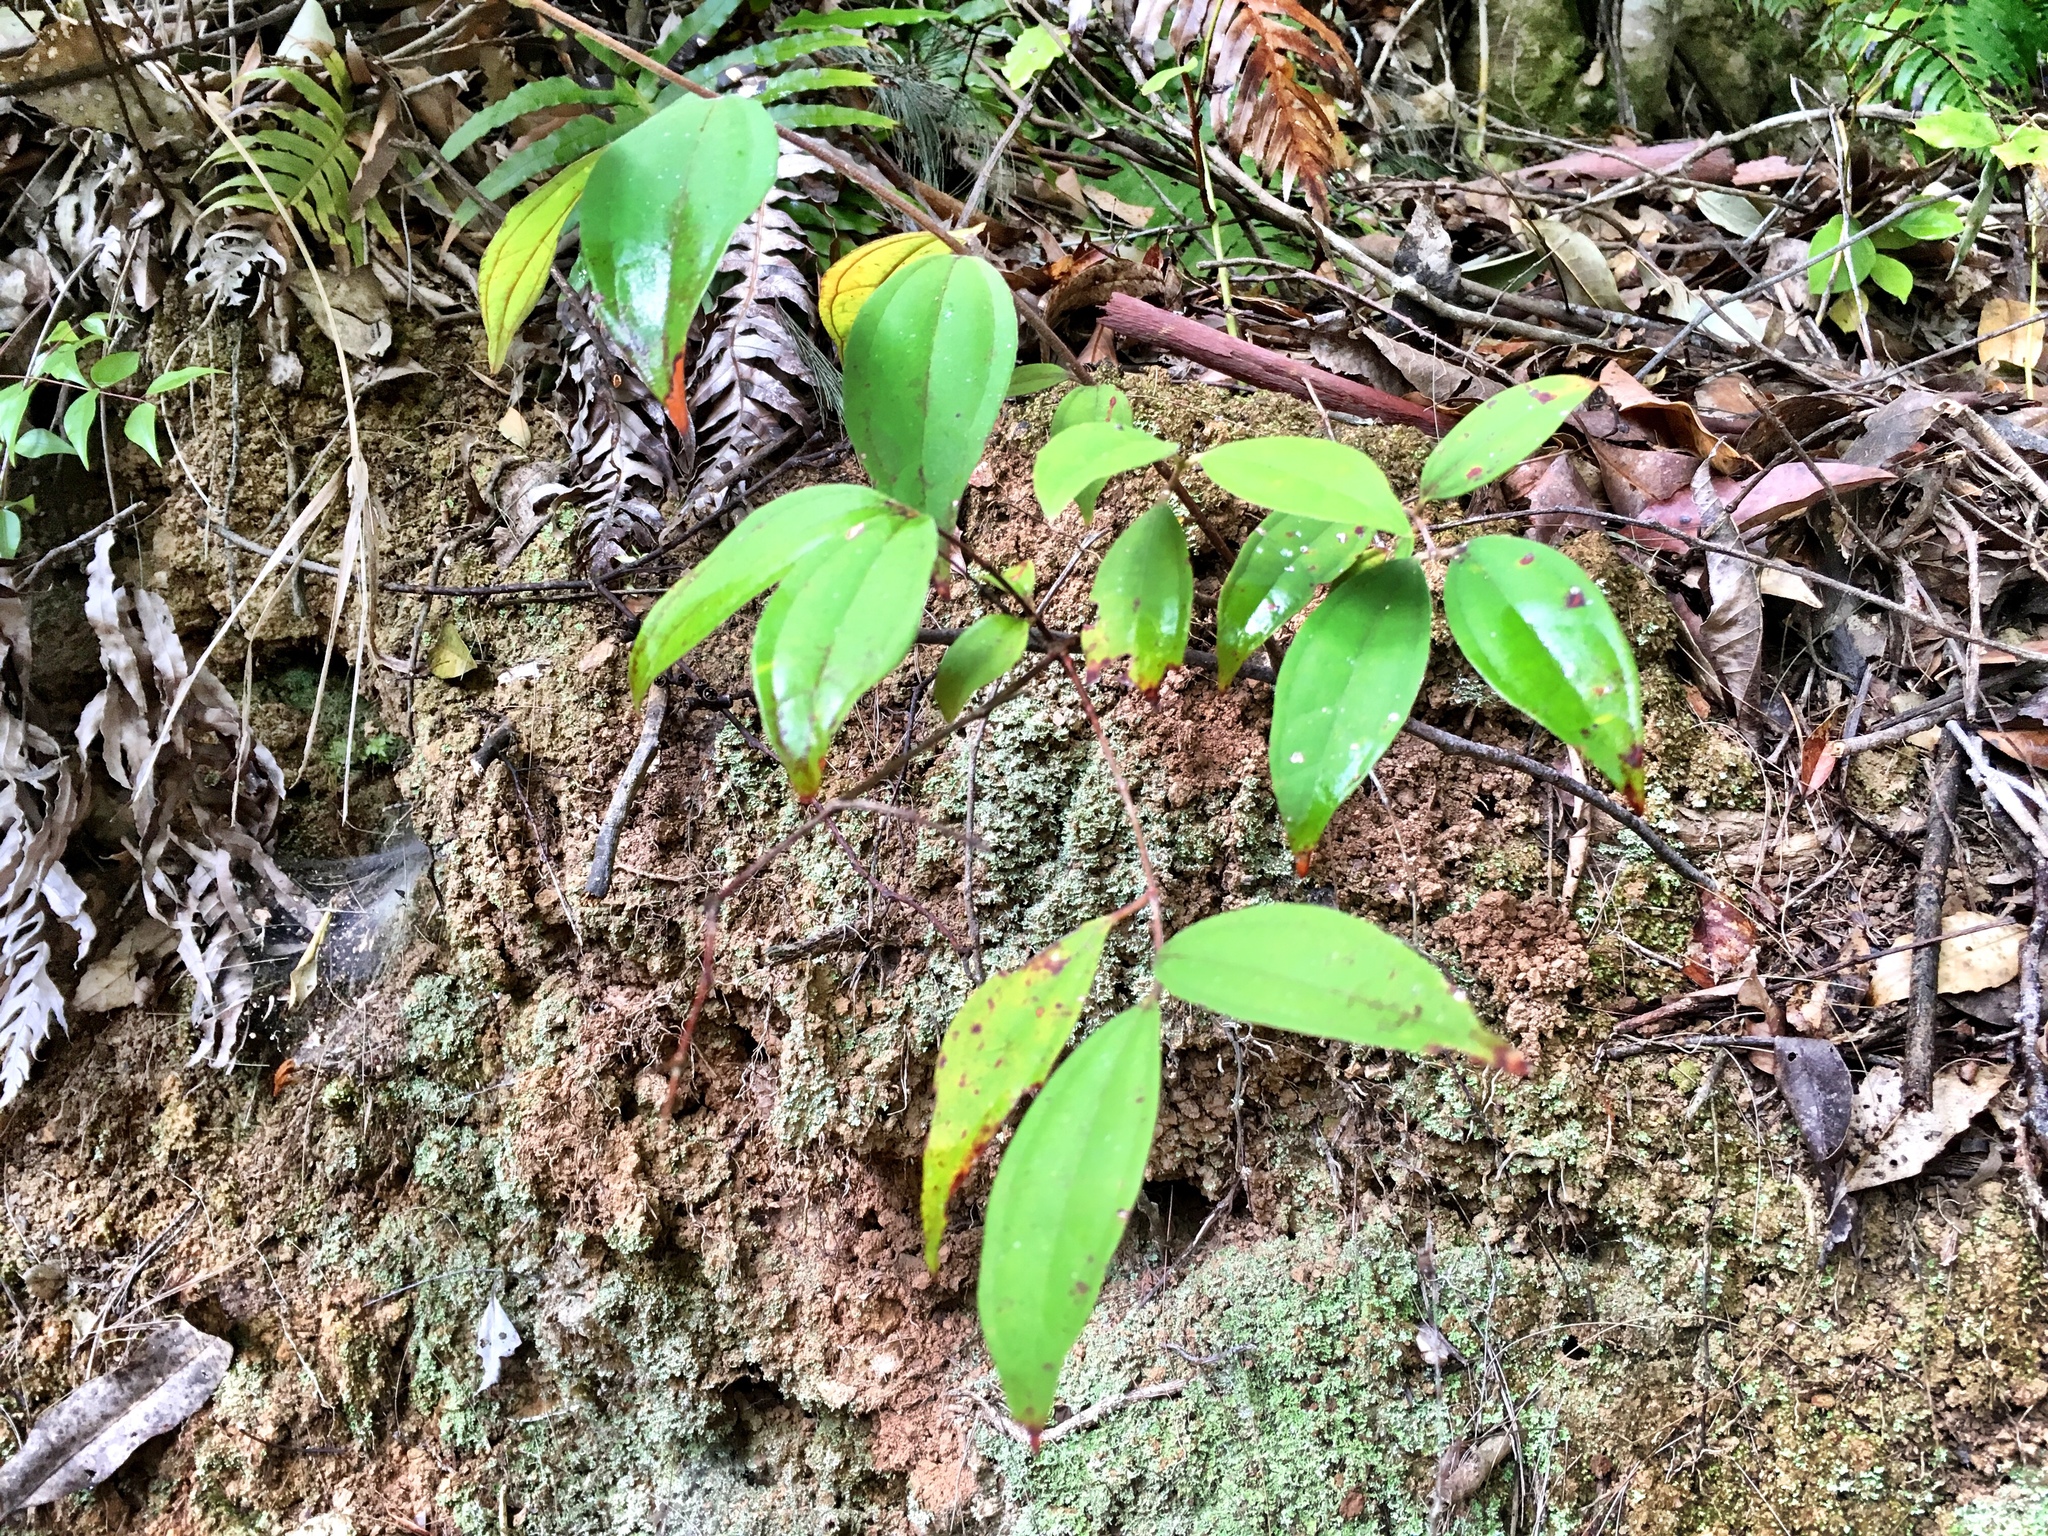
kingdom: Plantae
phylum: Tracheophyta
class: Magnoliopsida
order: Myrtales
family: Myrtaceae
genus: Rhodamnia
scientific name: Rhodamnia rubescens
